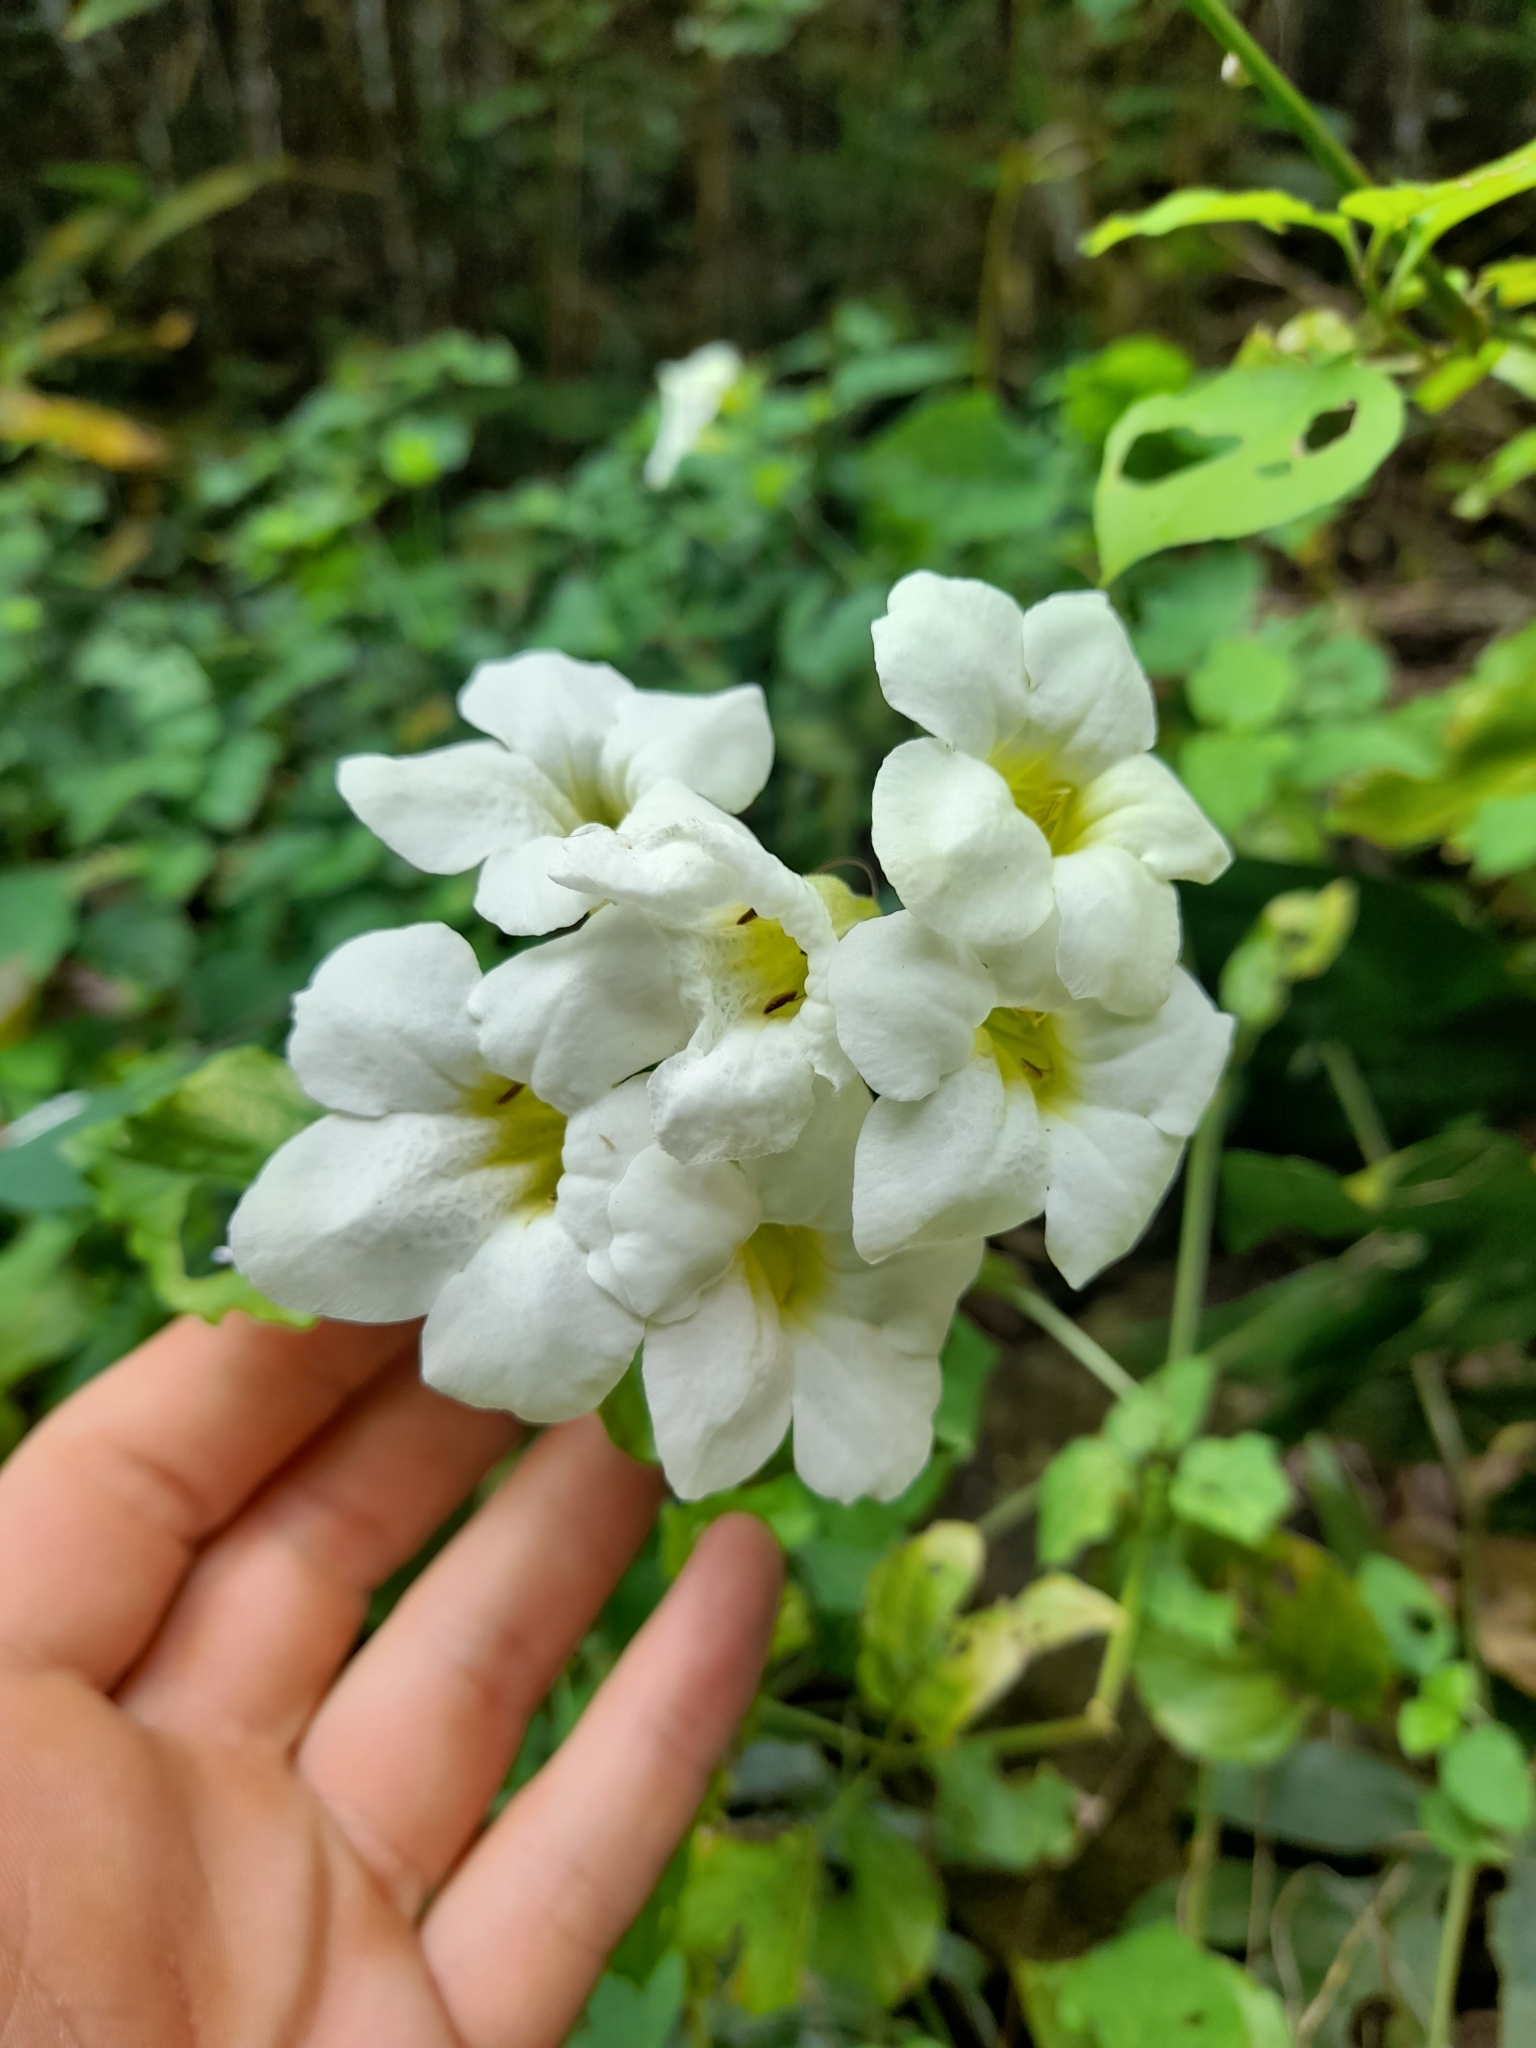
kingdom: Plantae
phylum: Tracheophyta
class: Magnoliopsida
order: Lamiales
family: Acanthaceae
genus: Asystasia
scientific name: Asystasia gangetica
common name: Chinese violet
